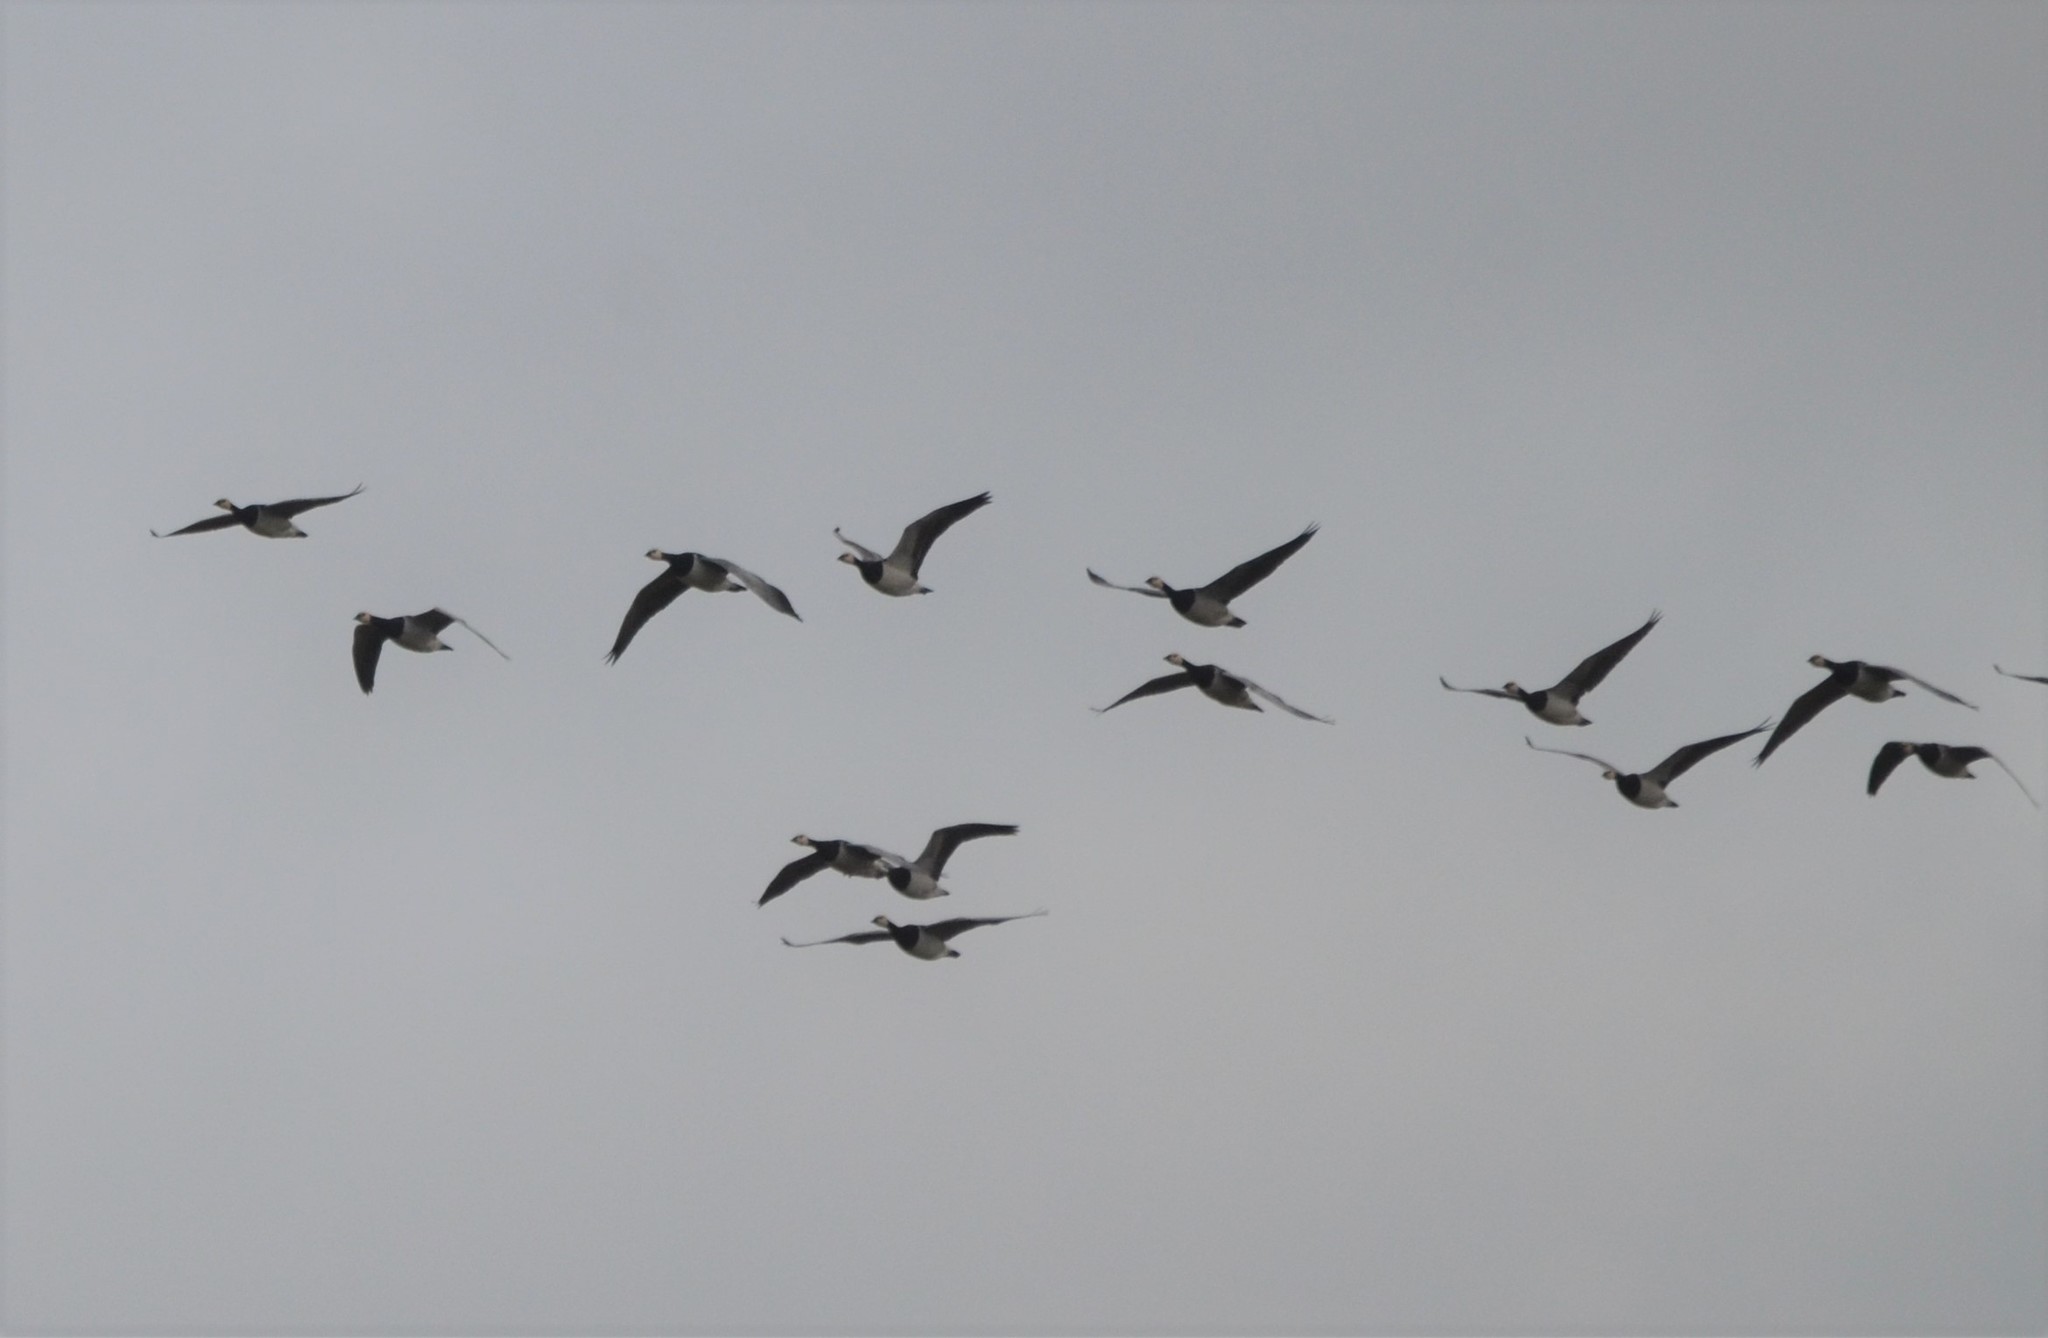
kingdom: Animalia
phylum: Chordata
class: Aves
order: Anseriformes
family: Anatidae
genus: Branta
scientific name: Branta leucopsis
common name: Barnacle goose
